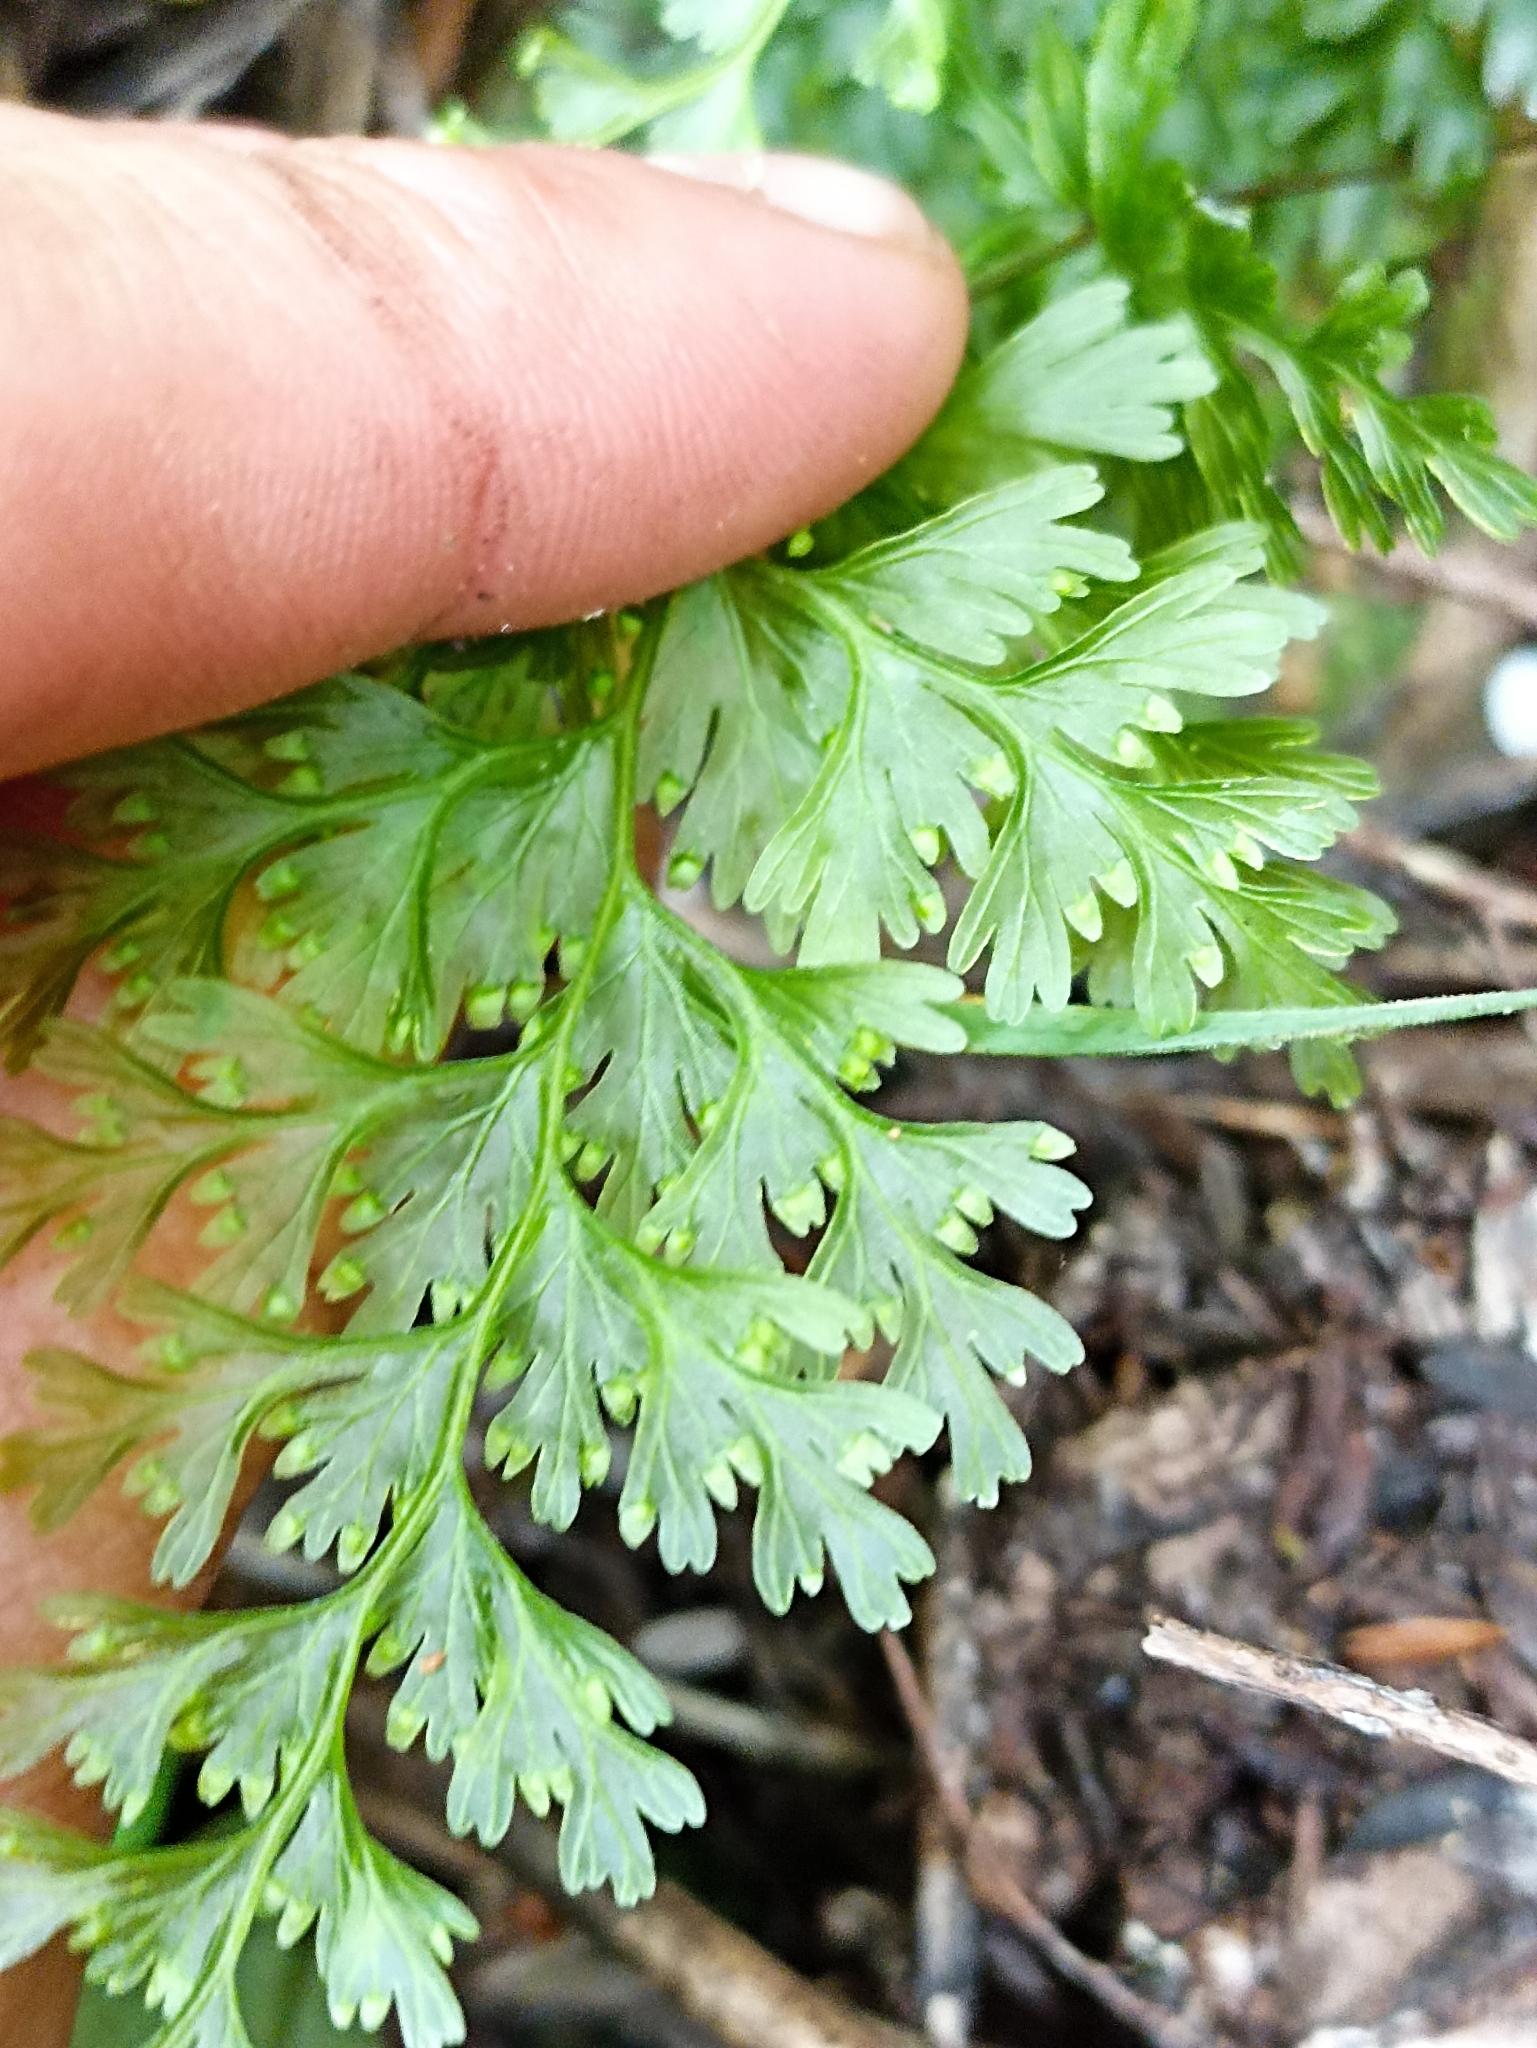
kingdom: Plantae
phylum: Tracheophyta
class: Polypodiopsida
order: Hymenophyllales
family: Hymenophyllaceae
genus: Hymenophyllum
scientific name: Hymenophyllum demissum
